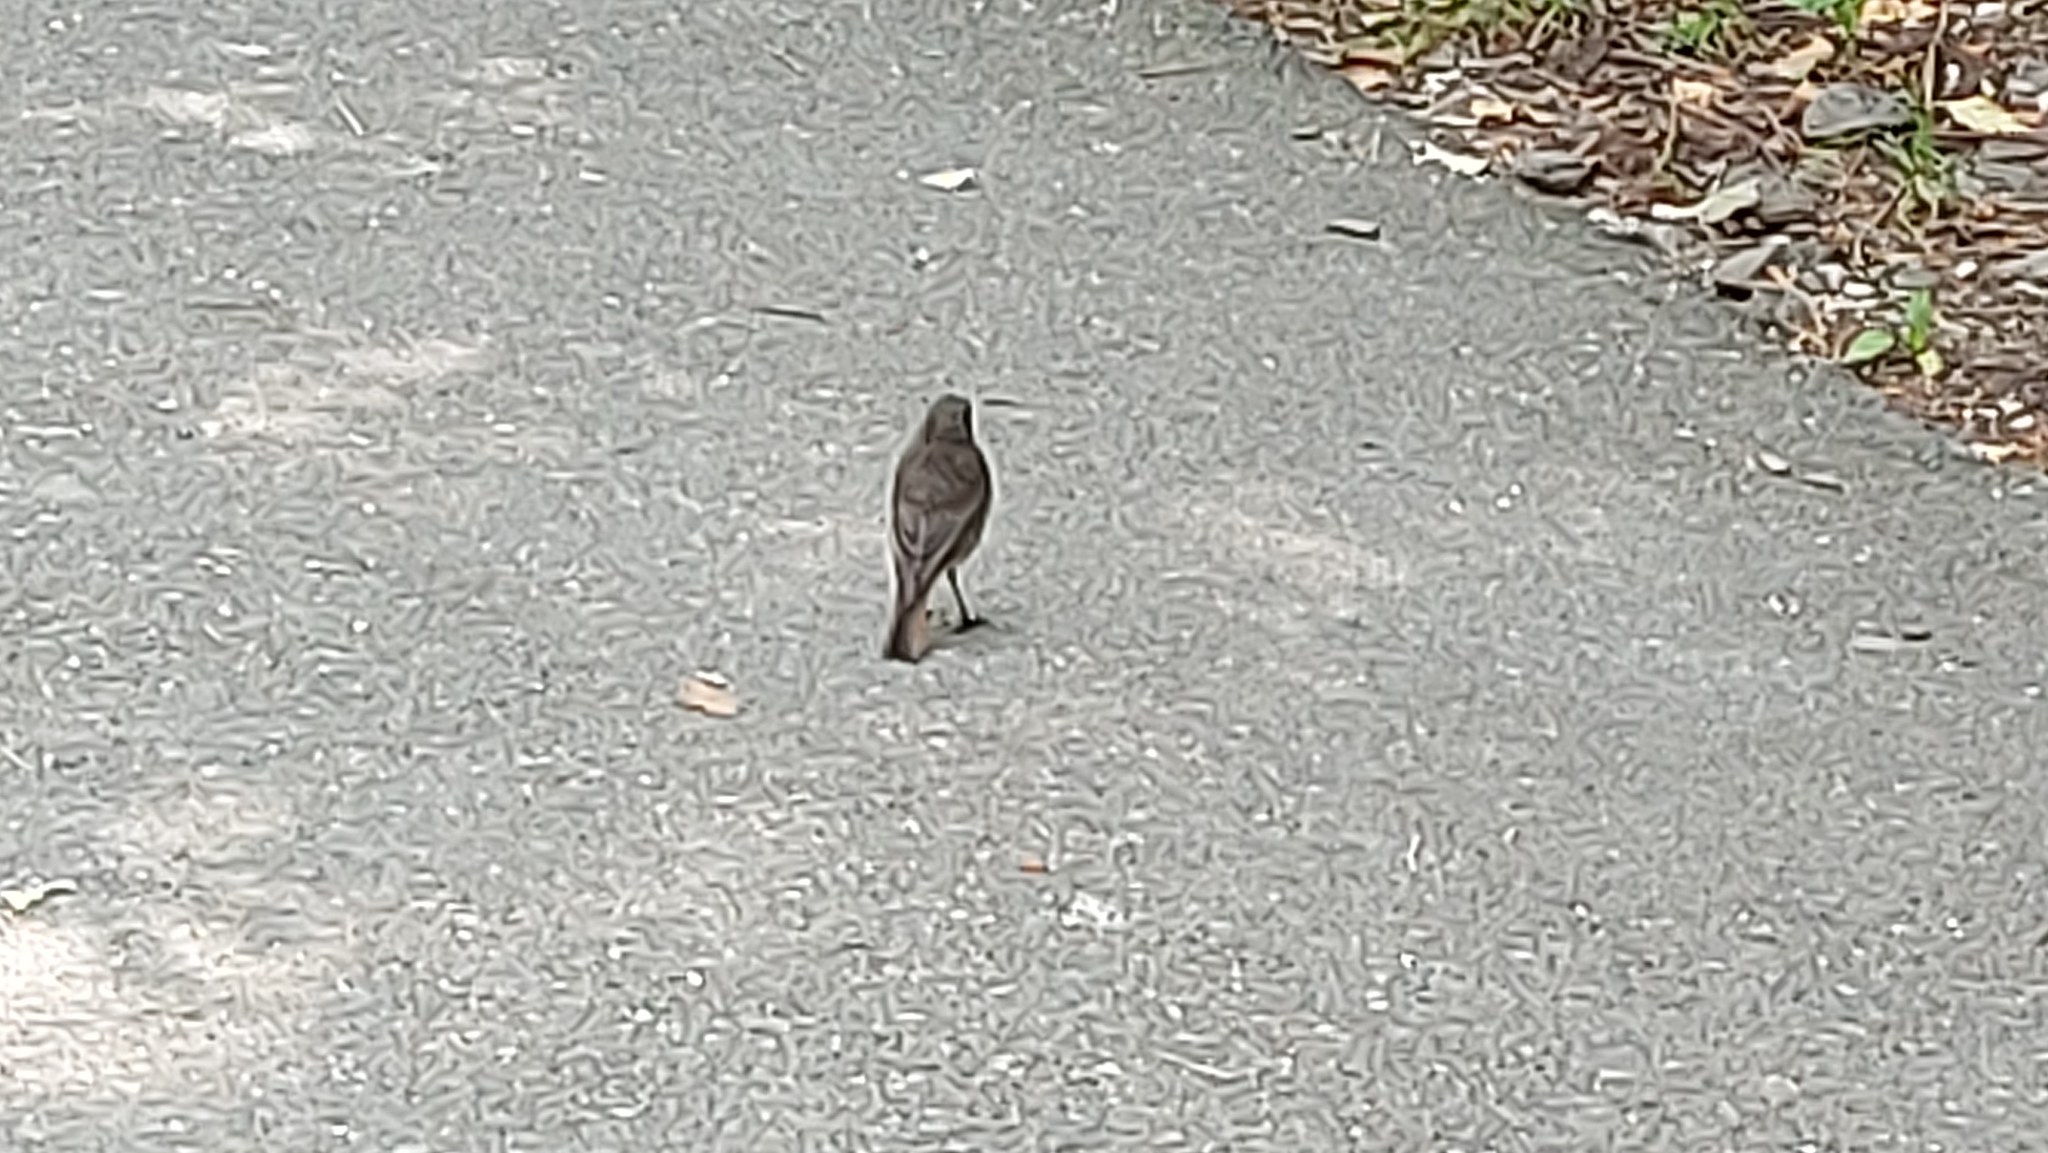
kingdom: Animalia
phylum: Chordata
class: Aves
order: Passeriformes
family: Muscicapidae
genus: Phoenicurus
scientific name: Phoenicurus ochruros
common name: Black redstart
